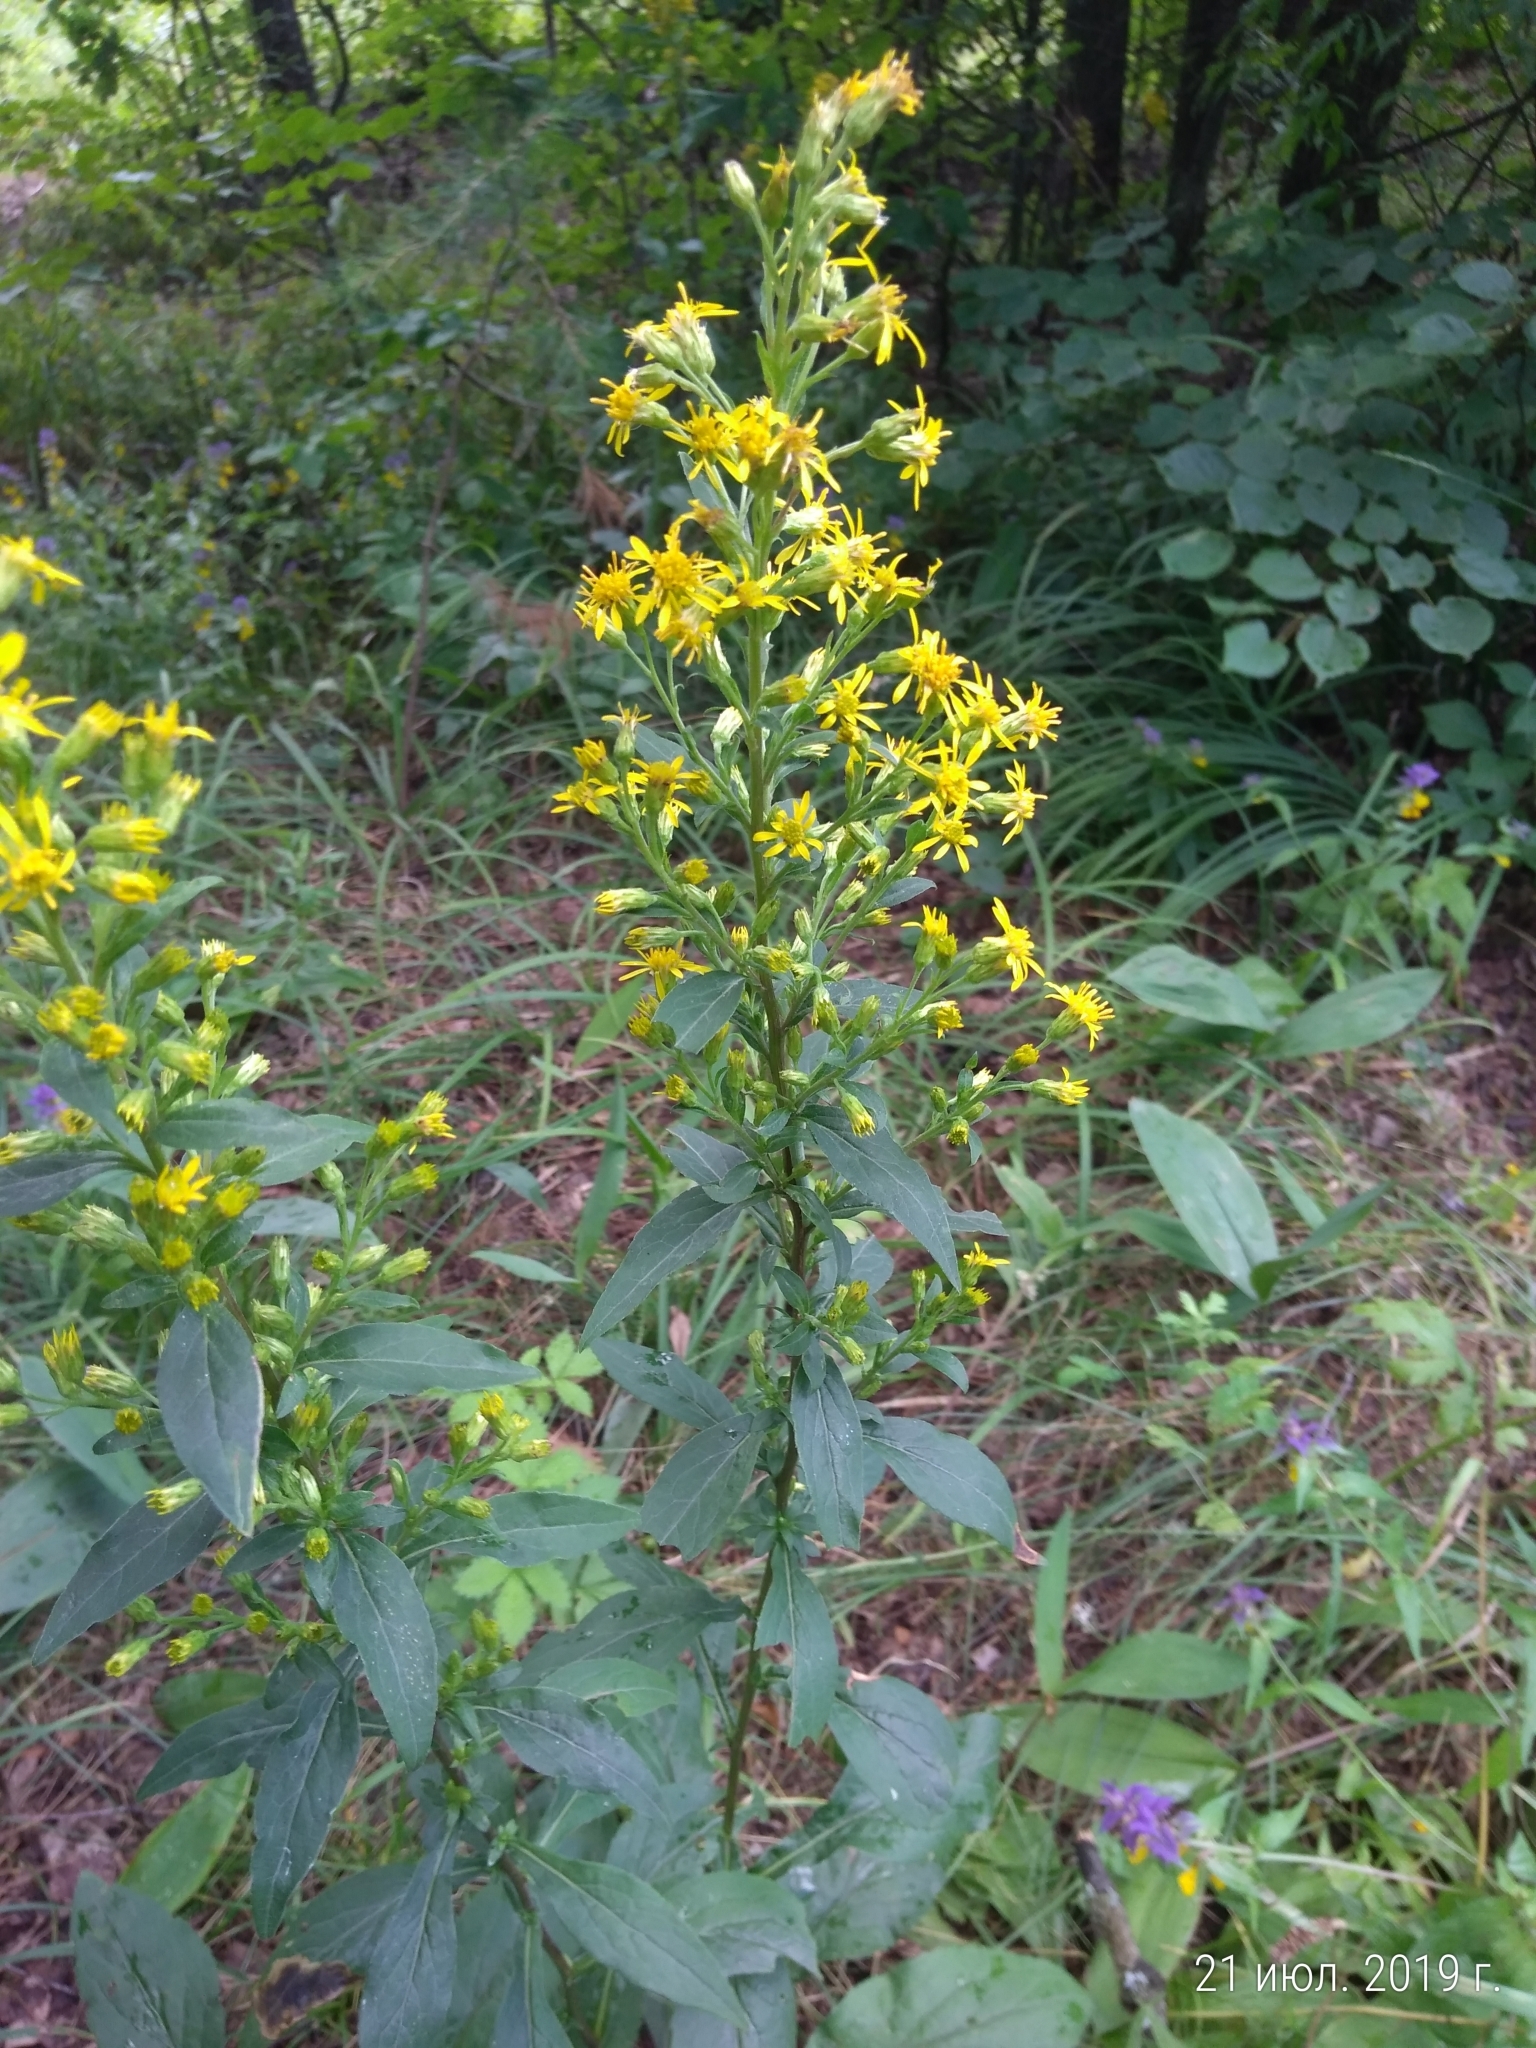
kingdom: Plantae
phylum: Tracheophyta
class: Magnoliopsida
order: Asterales
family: Asteraceae
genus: Solidago
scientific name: Solidago virgaurea
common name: Goldenrod
